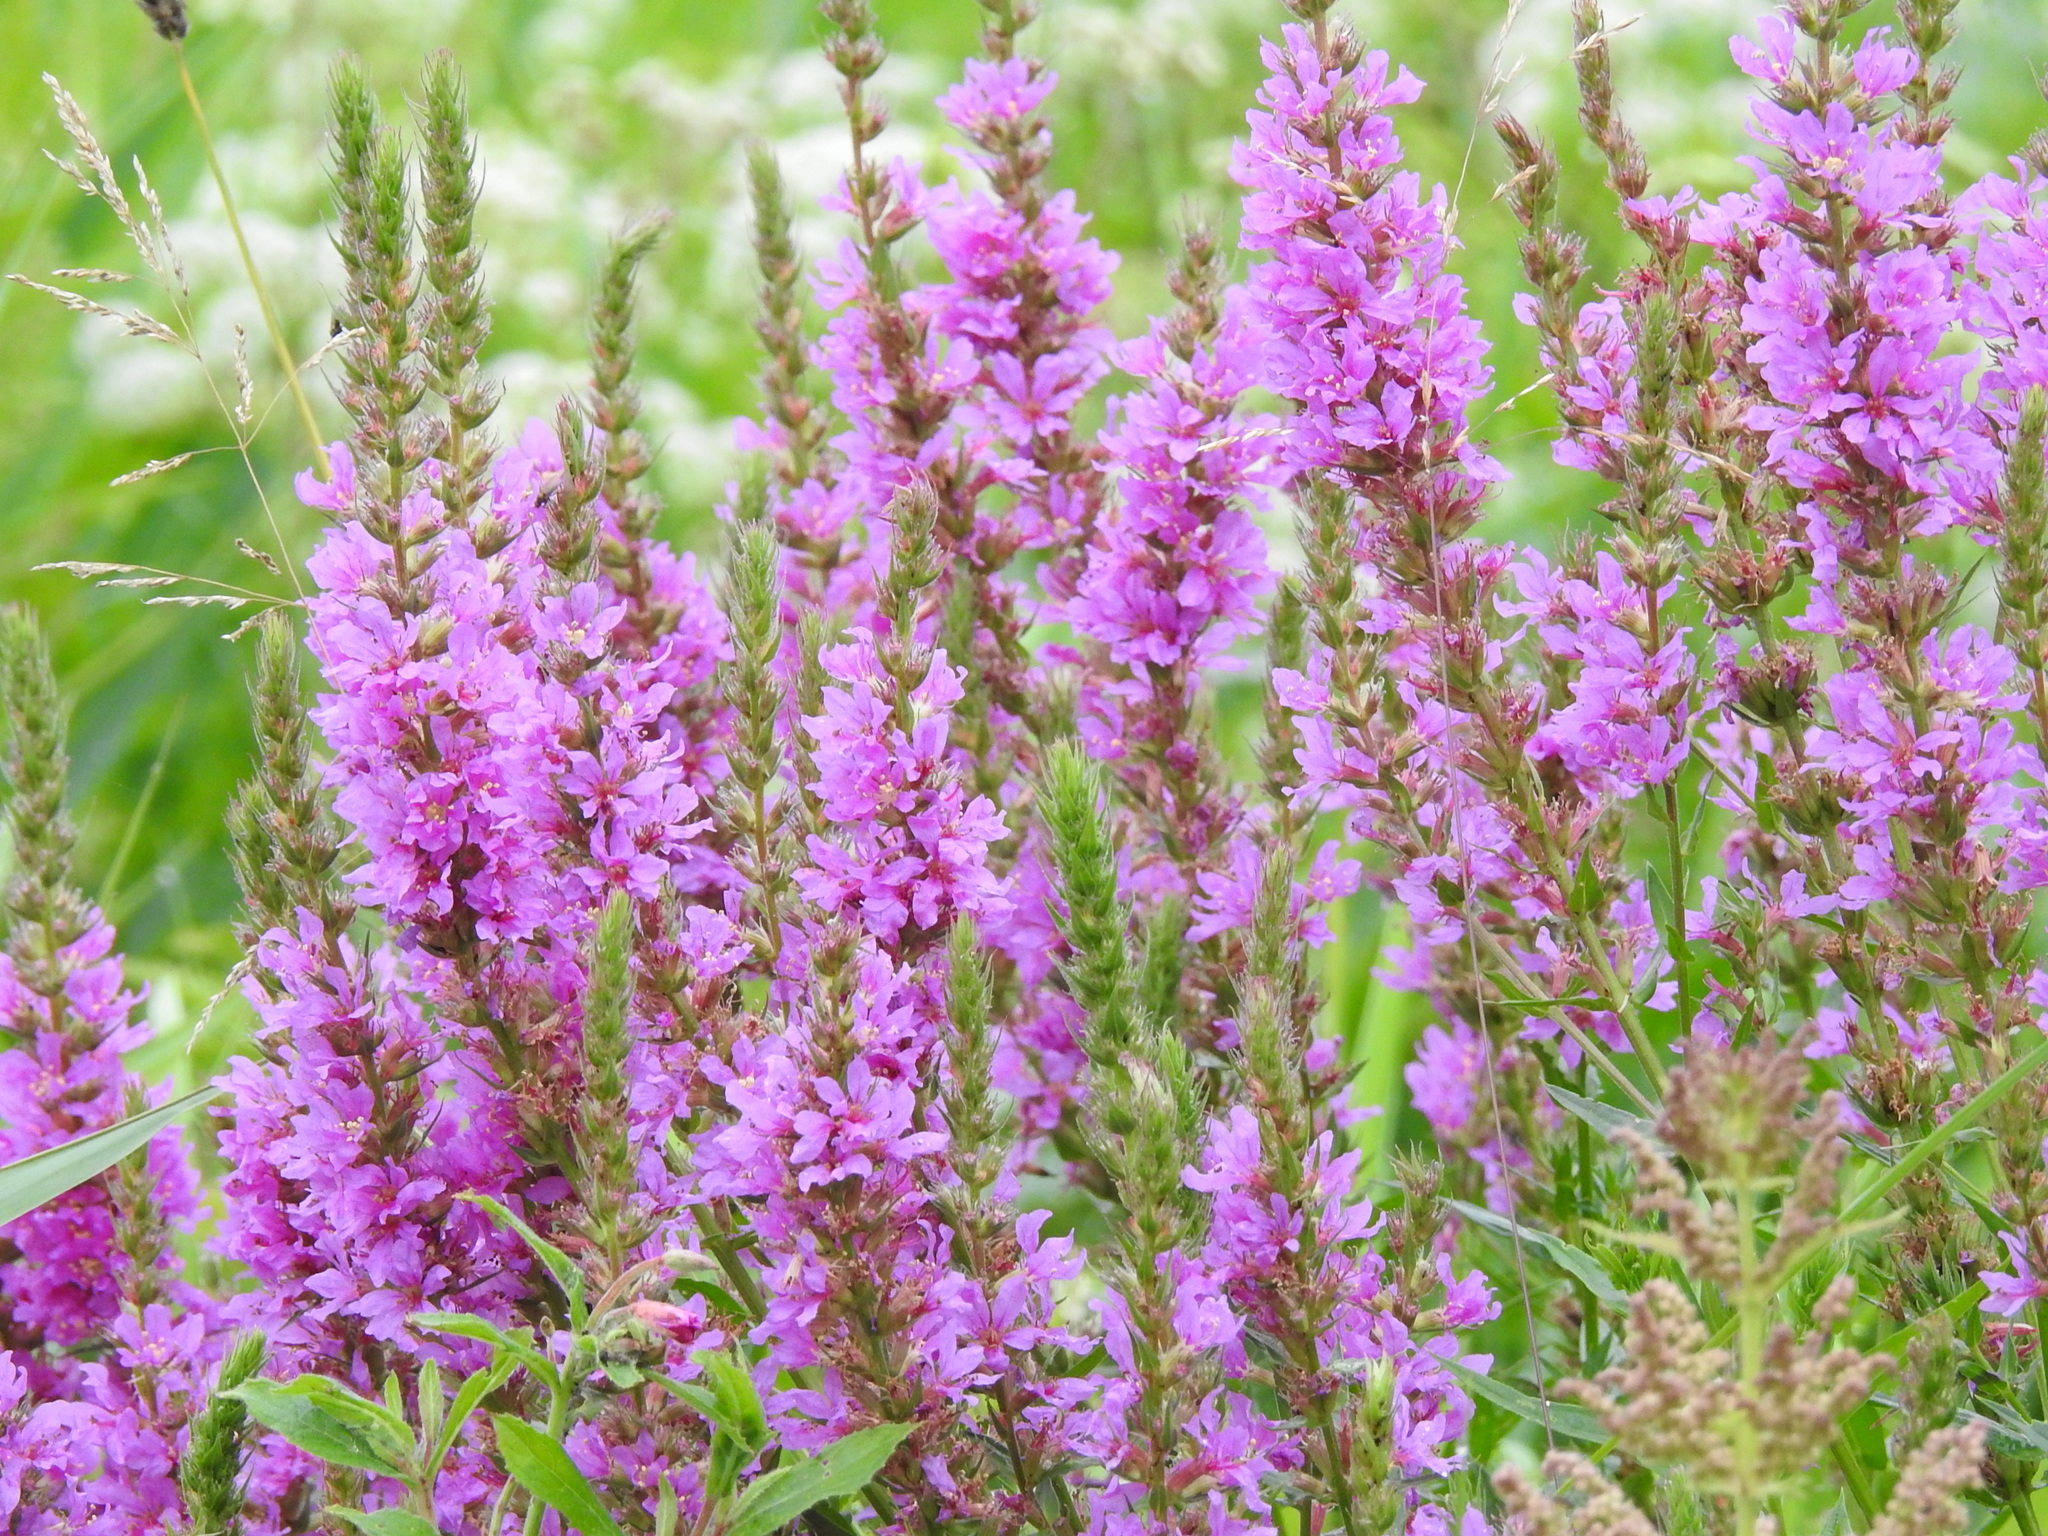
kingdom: Plantae
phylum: Tracheophyta
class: Magnoliopsida
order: Myrtales
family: Lythraceae
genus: Lythrum
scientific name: Lythrum salicaria
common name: Purple loosestrife
